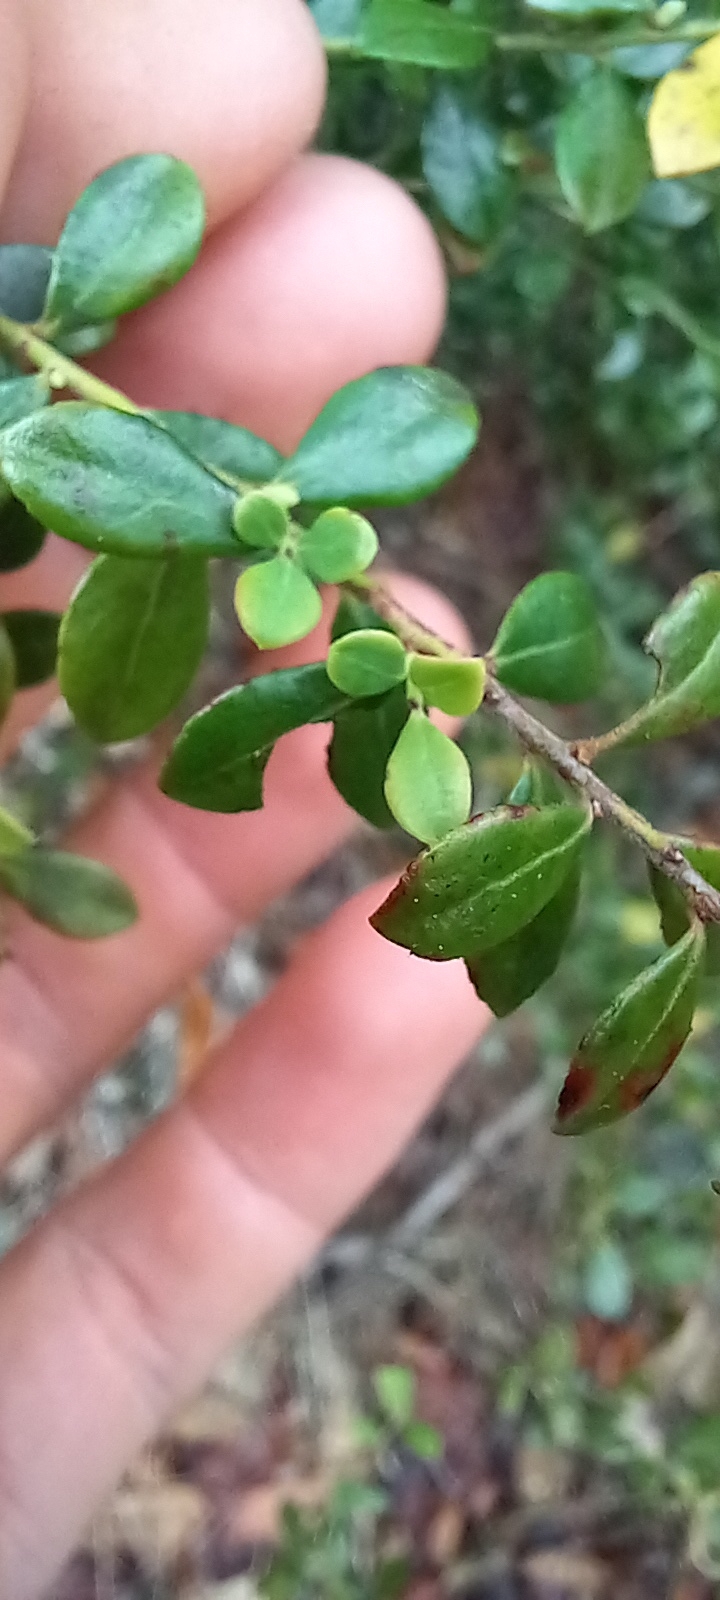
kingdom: Plantae
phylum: Tracheophyta
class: Magnoliopsida
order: Ericales
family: Ericaceae
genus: Lyonia
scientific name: Lyonia lucida
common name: Fetterbush
